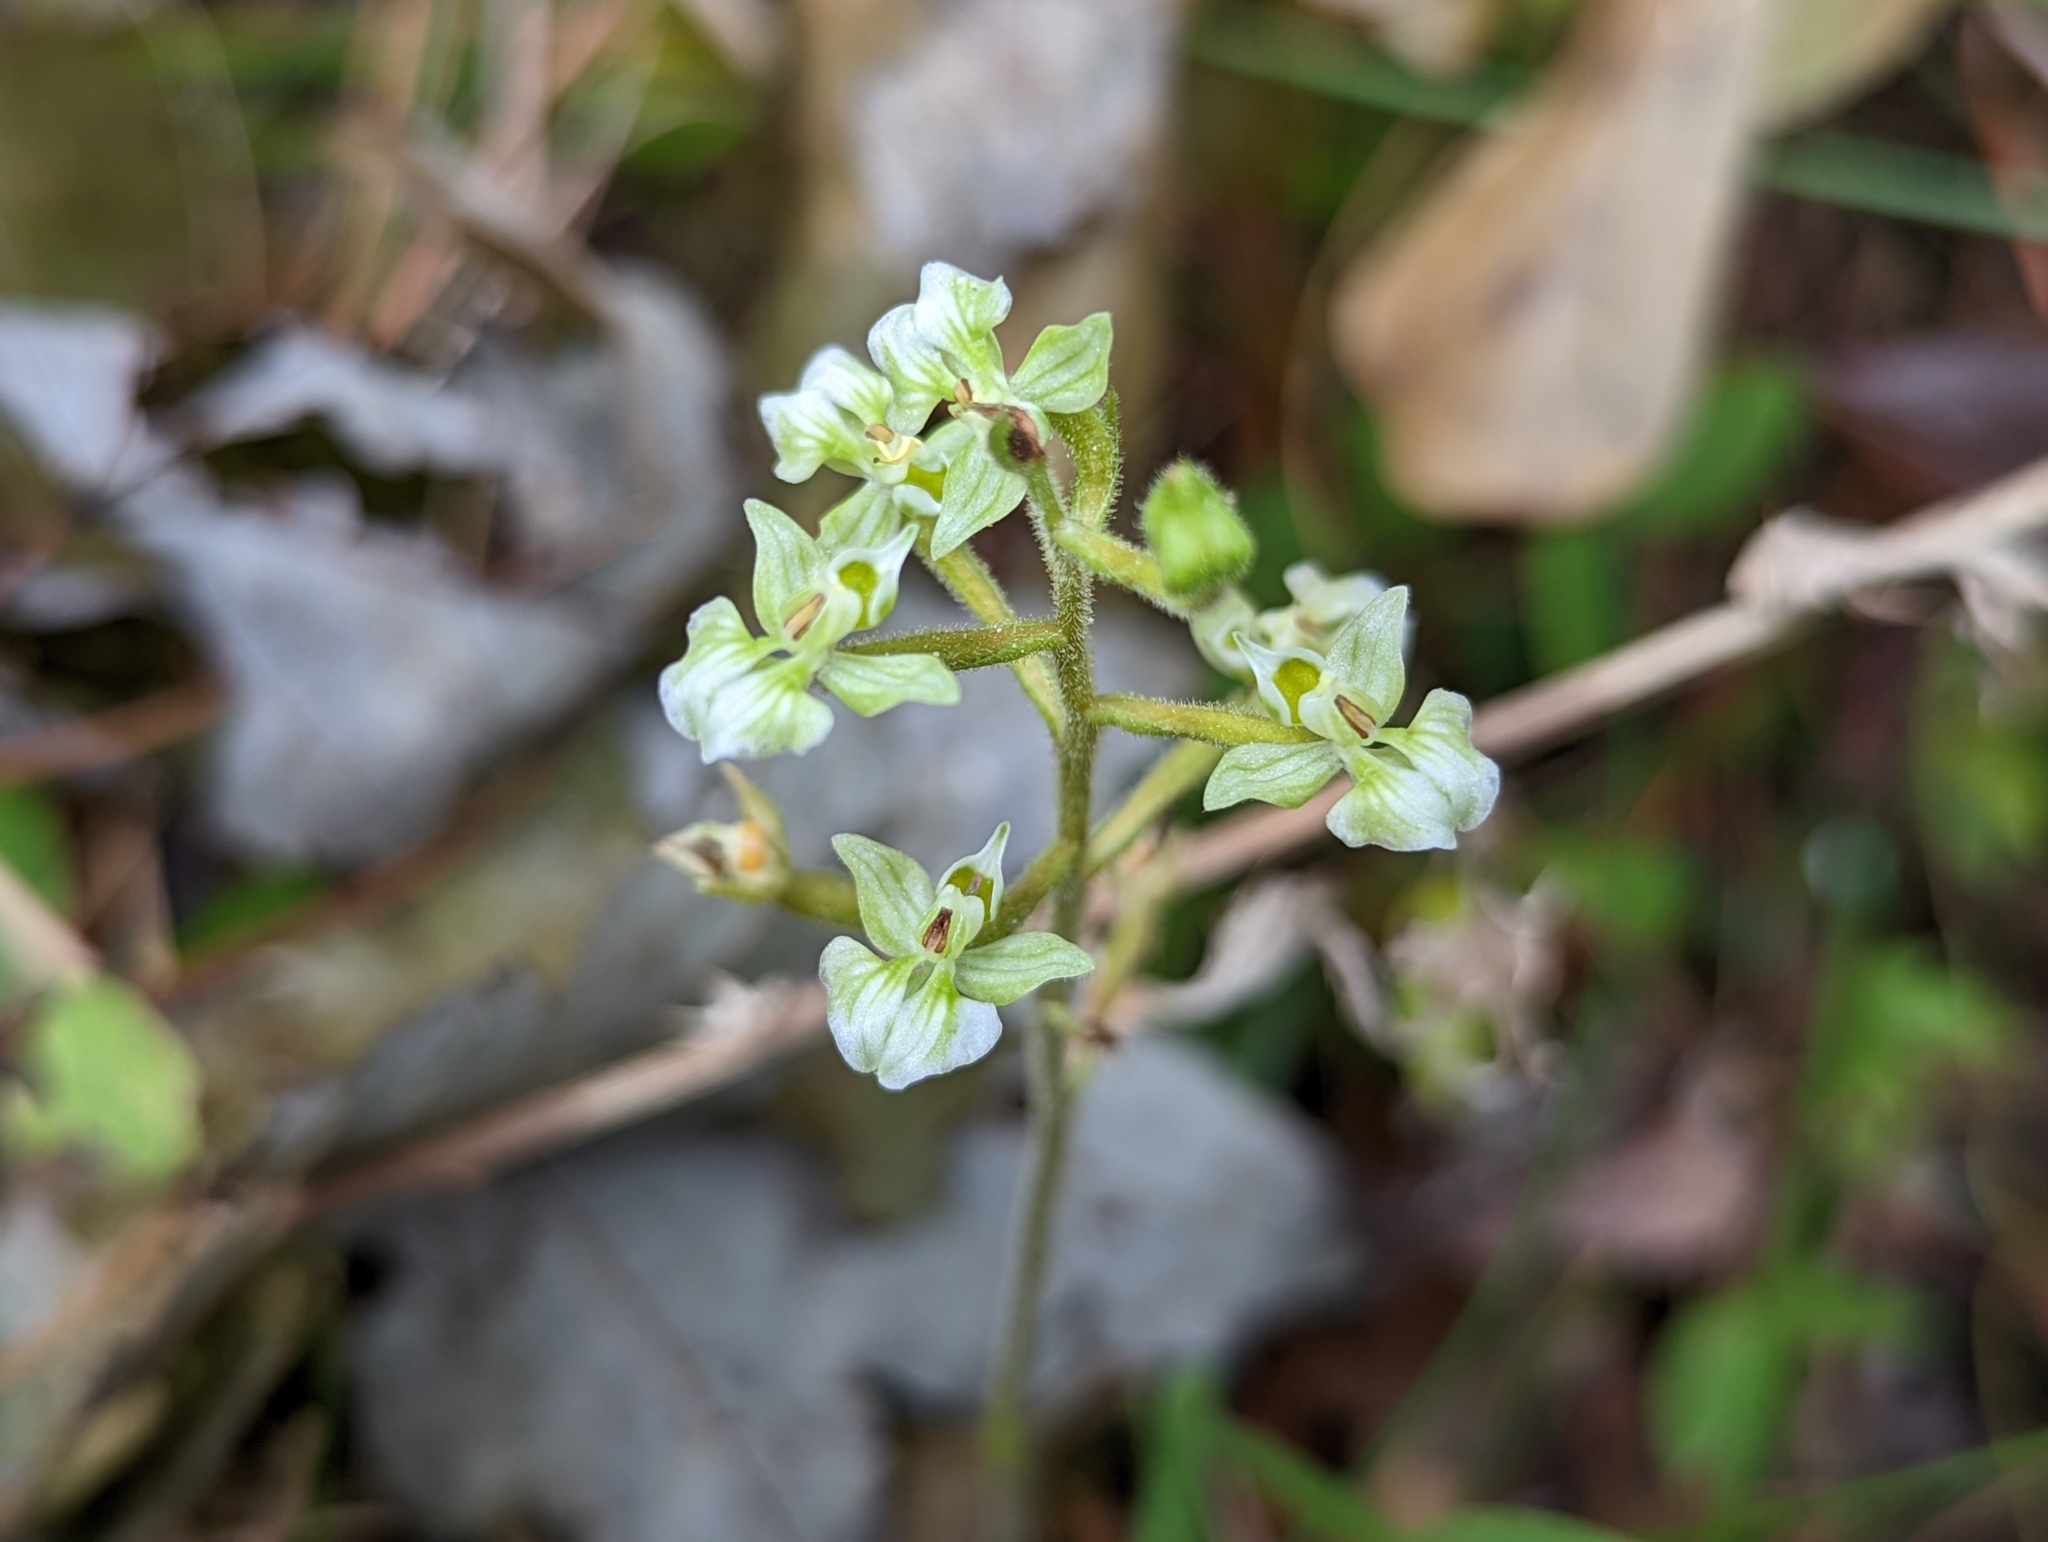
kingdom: Plantae
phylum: Tracheophyta
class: Liliopsida
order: Asparagales
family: Orchidaceae
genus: Ponthieva
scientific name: Ponthieva racemosa
